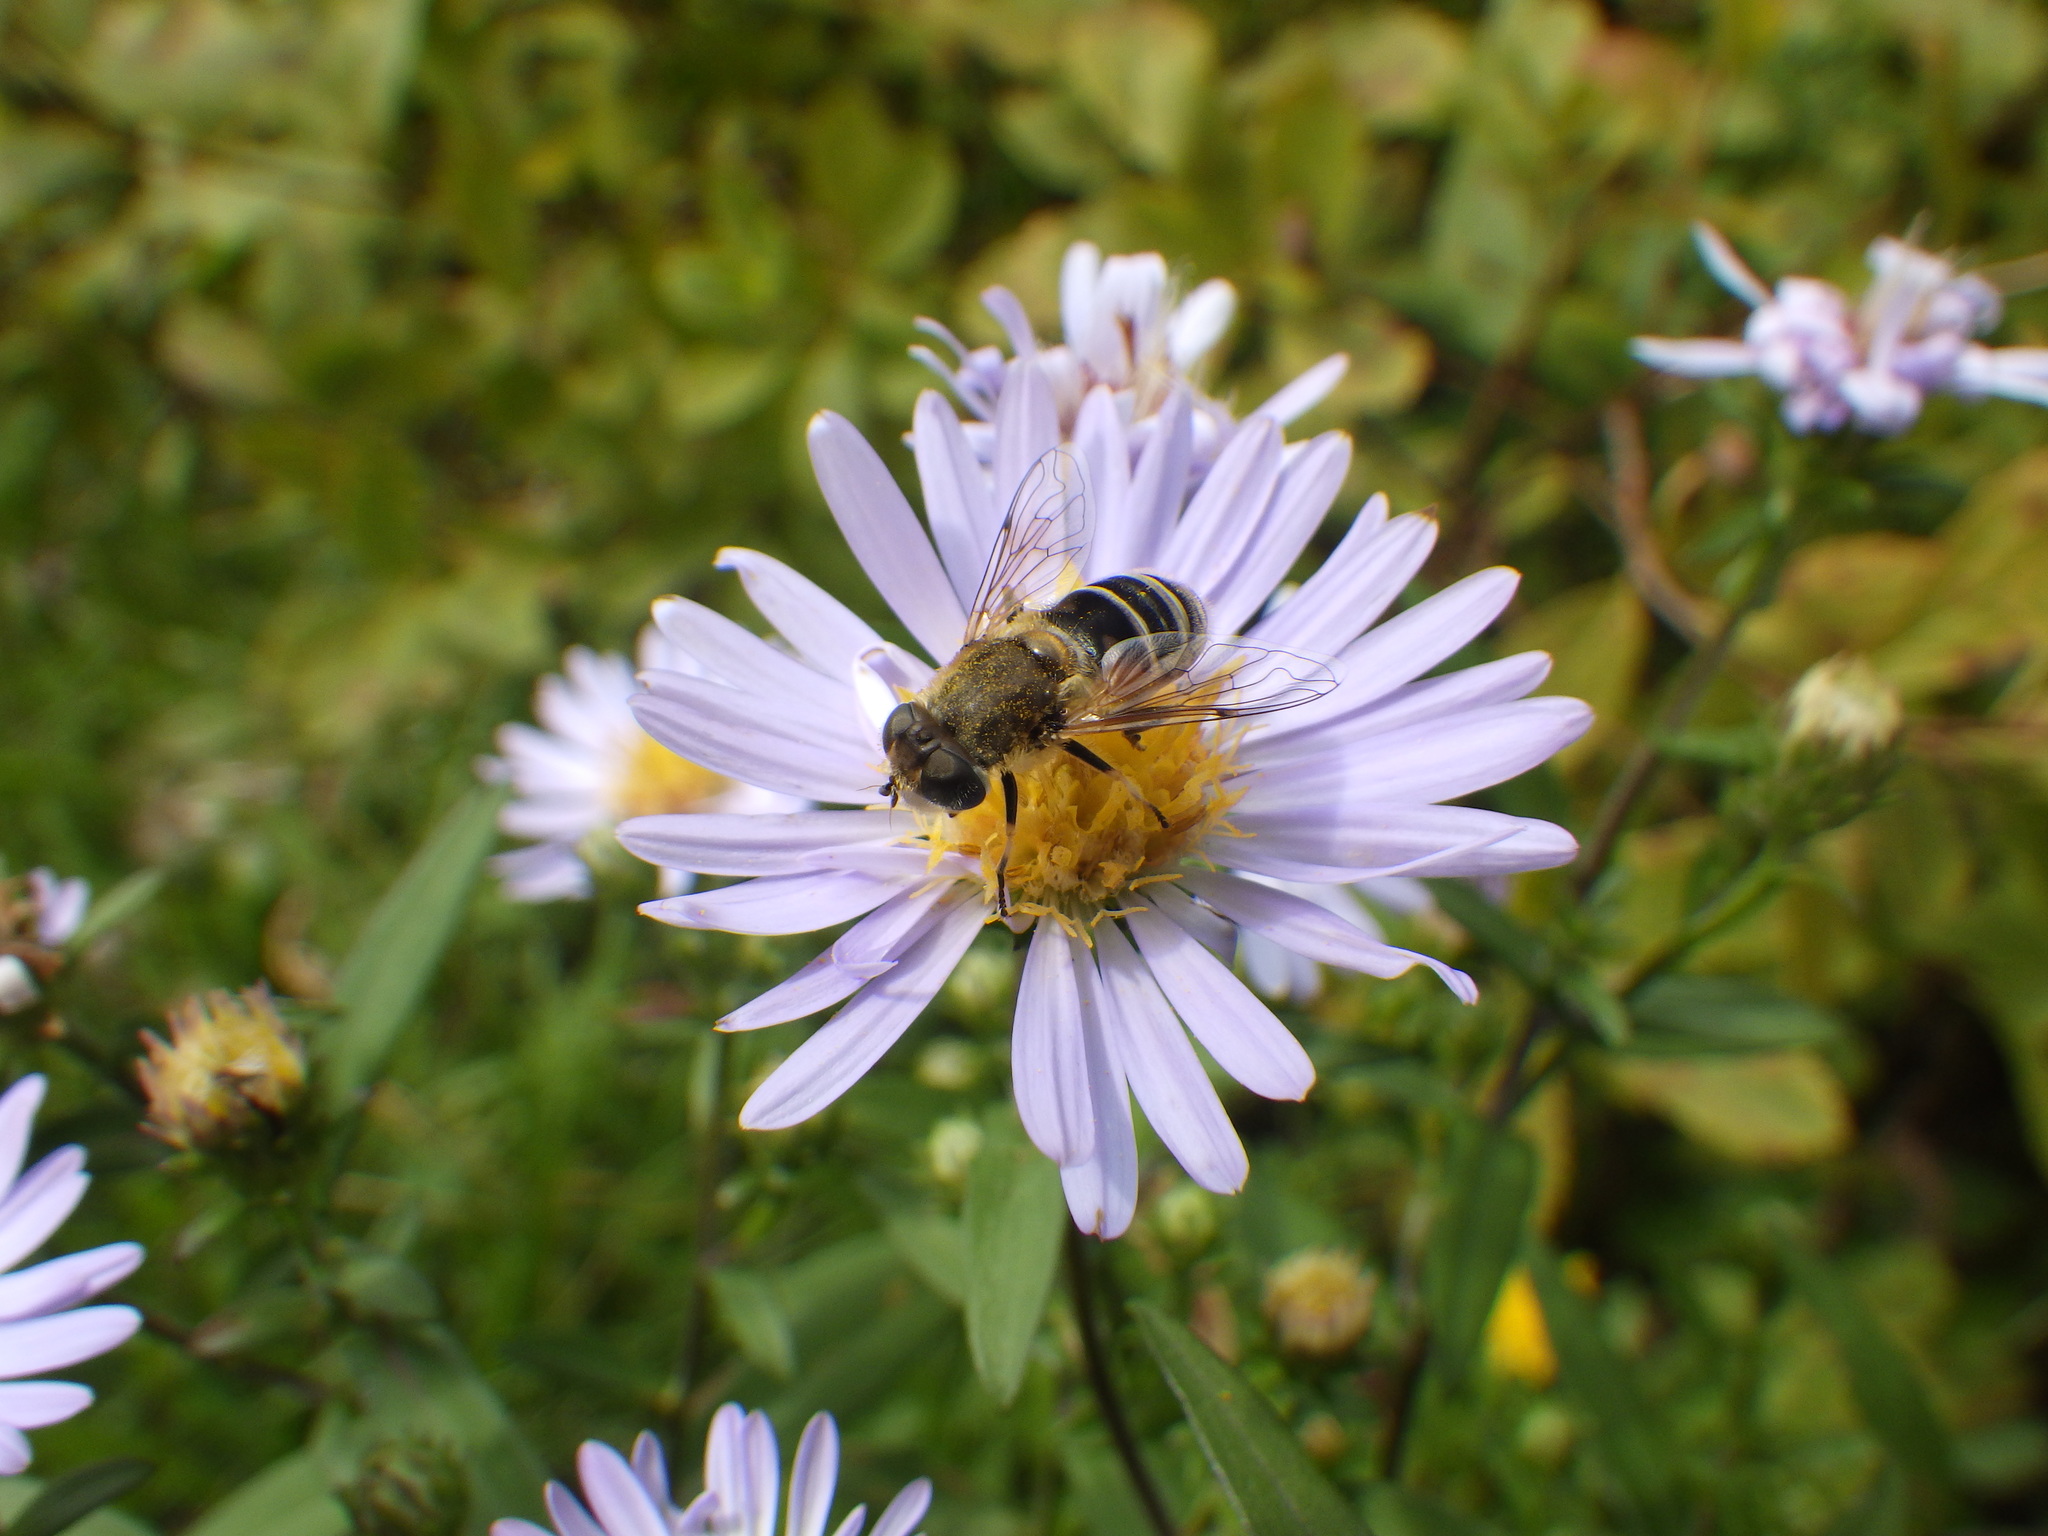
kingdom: Animalia
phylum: Arthropoda
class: Insecta
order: Diptera
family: Syrphidae
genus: Eristalis
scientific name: Eristalis arbustorum
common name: Hover fly
